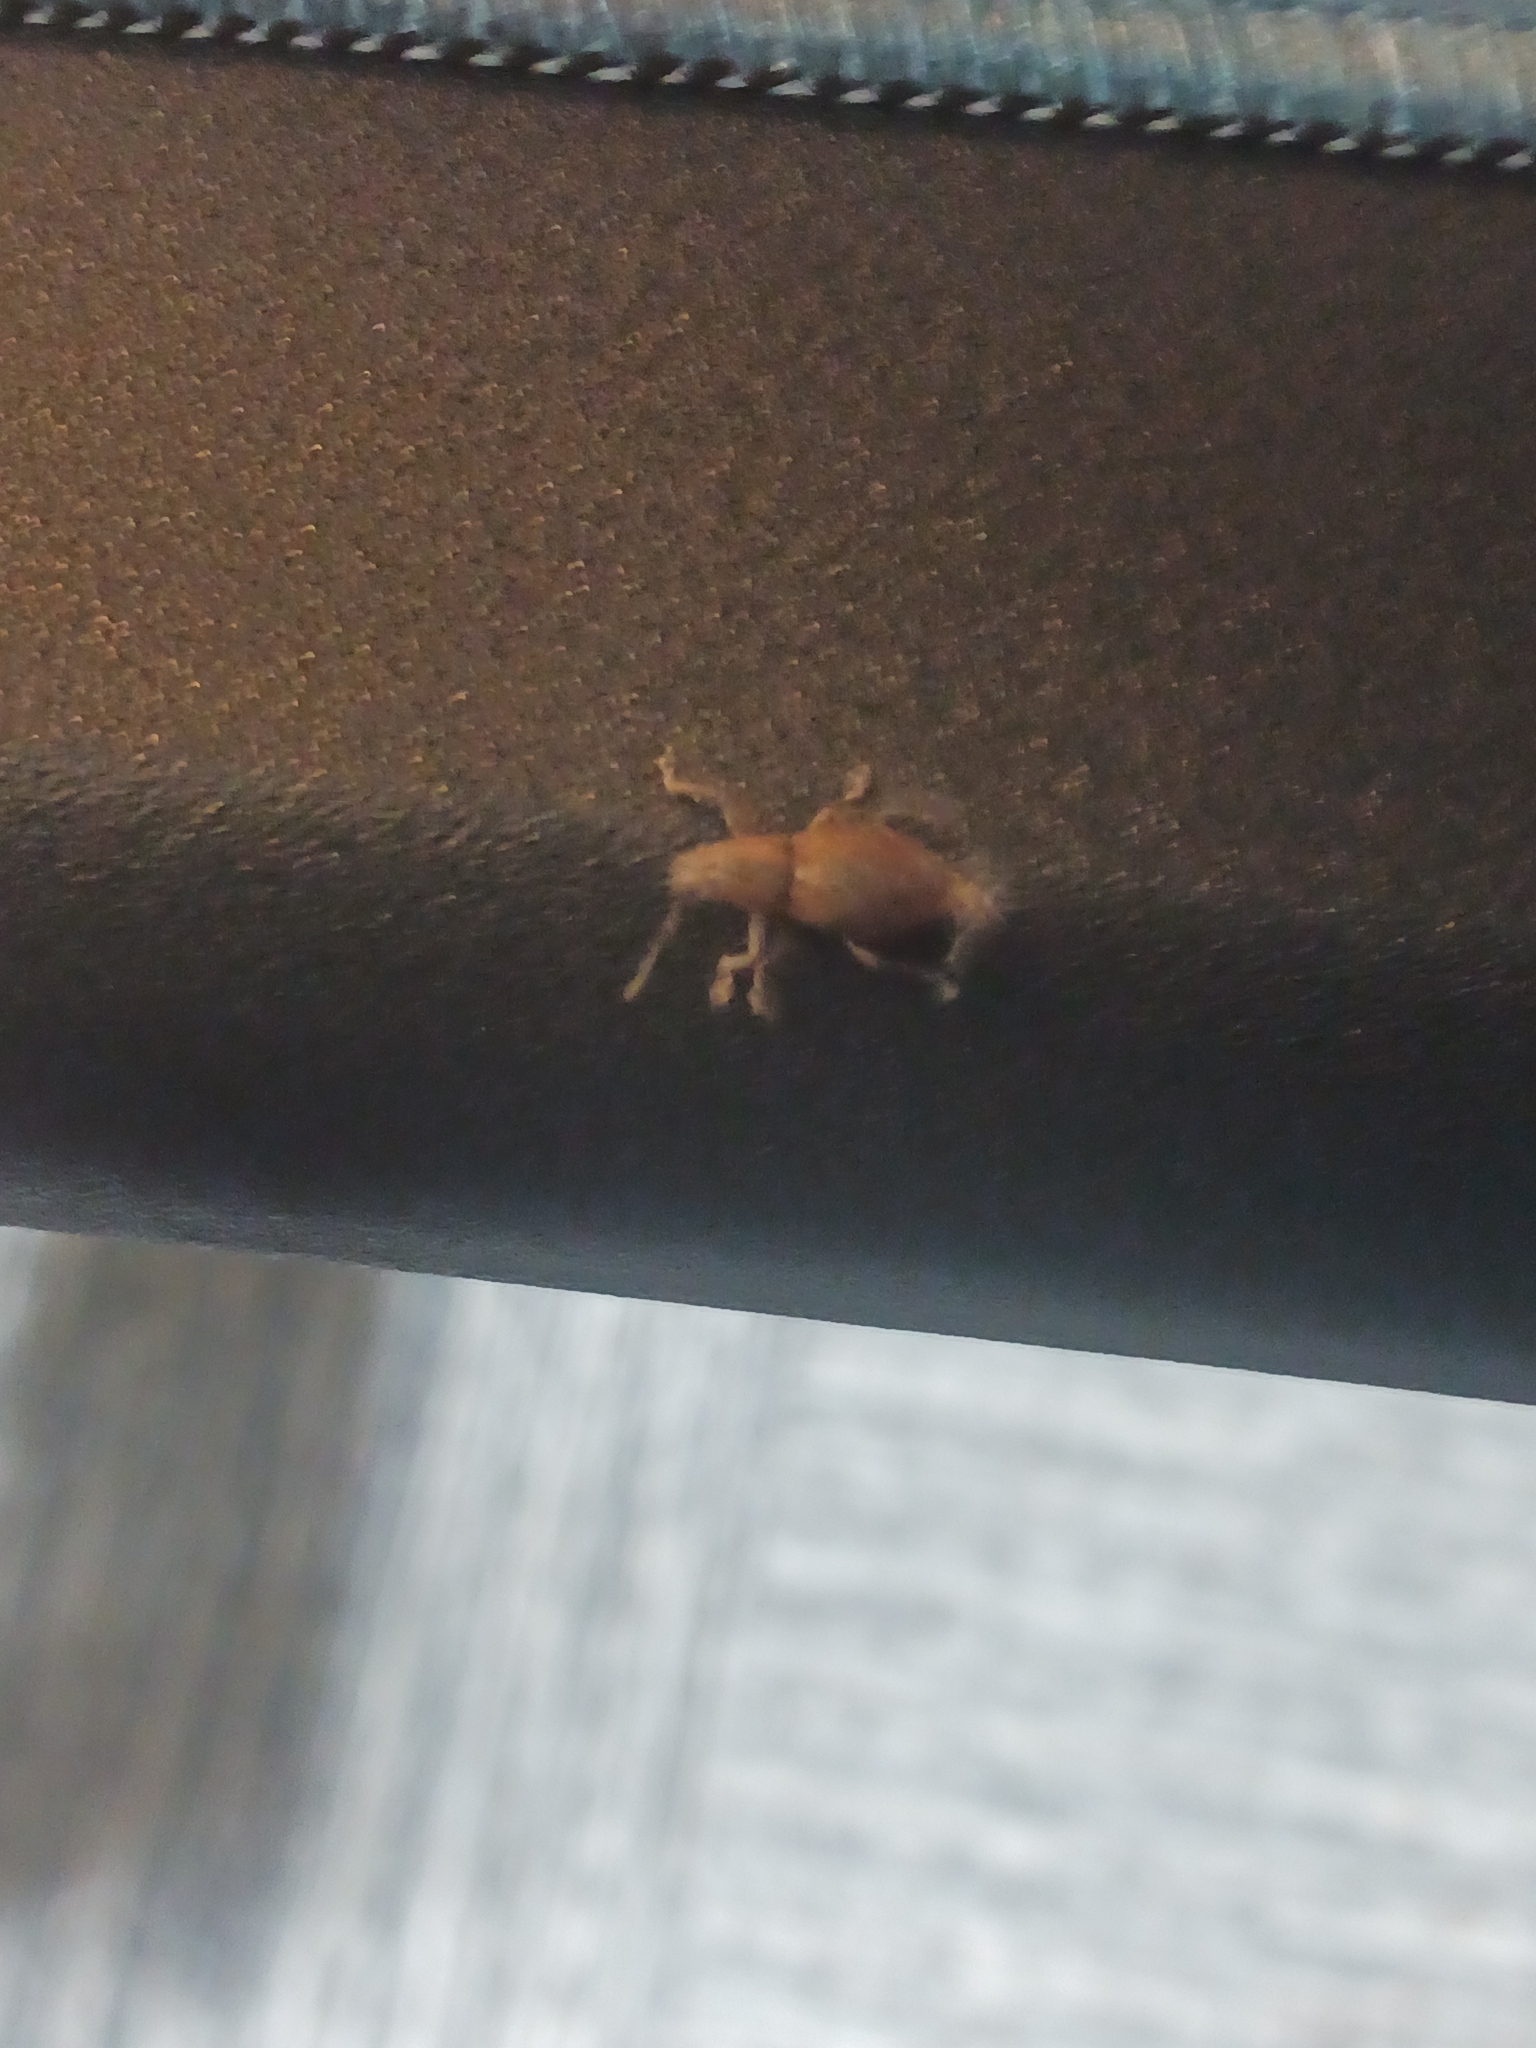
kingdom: Animalia
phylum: Arthropoda
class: Insecta
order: Coleoptera
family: Curculionidae
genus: Naupactus
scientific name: Naupactus cervinus
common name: Fuller rose beetle
